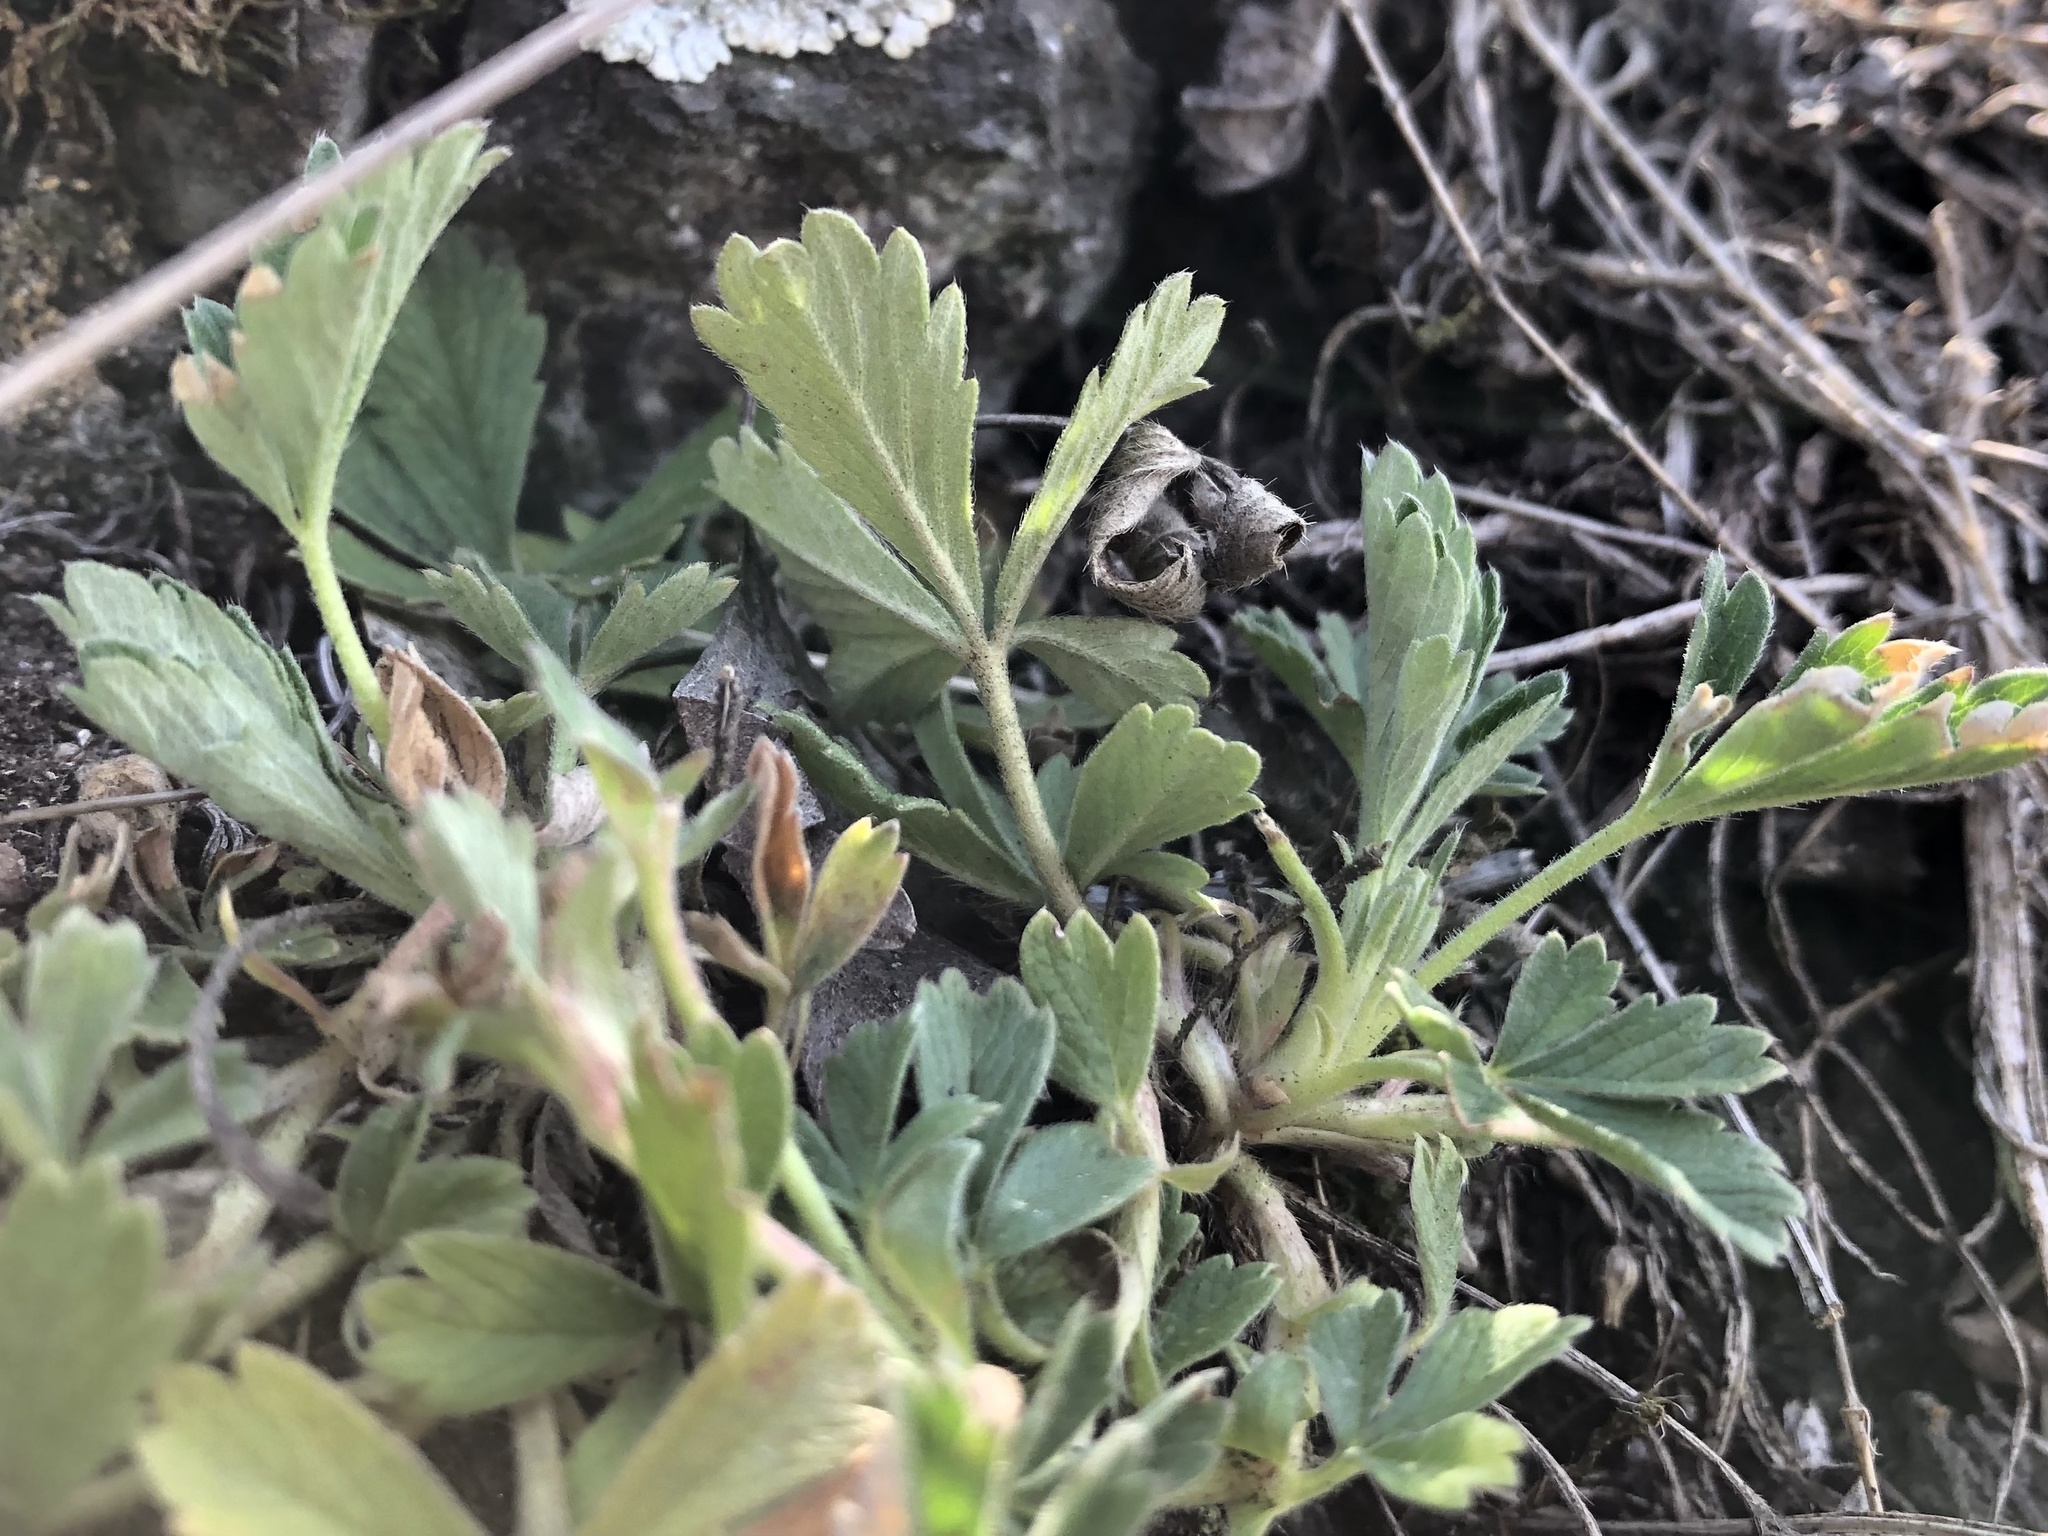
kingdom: Plantae
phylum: Tracheophyta
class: Magnoliopsida
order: Rosales
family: Rosaceae
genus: Potentilla
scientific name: Potentilla incana
